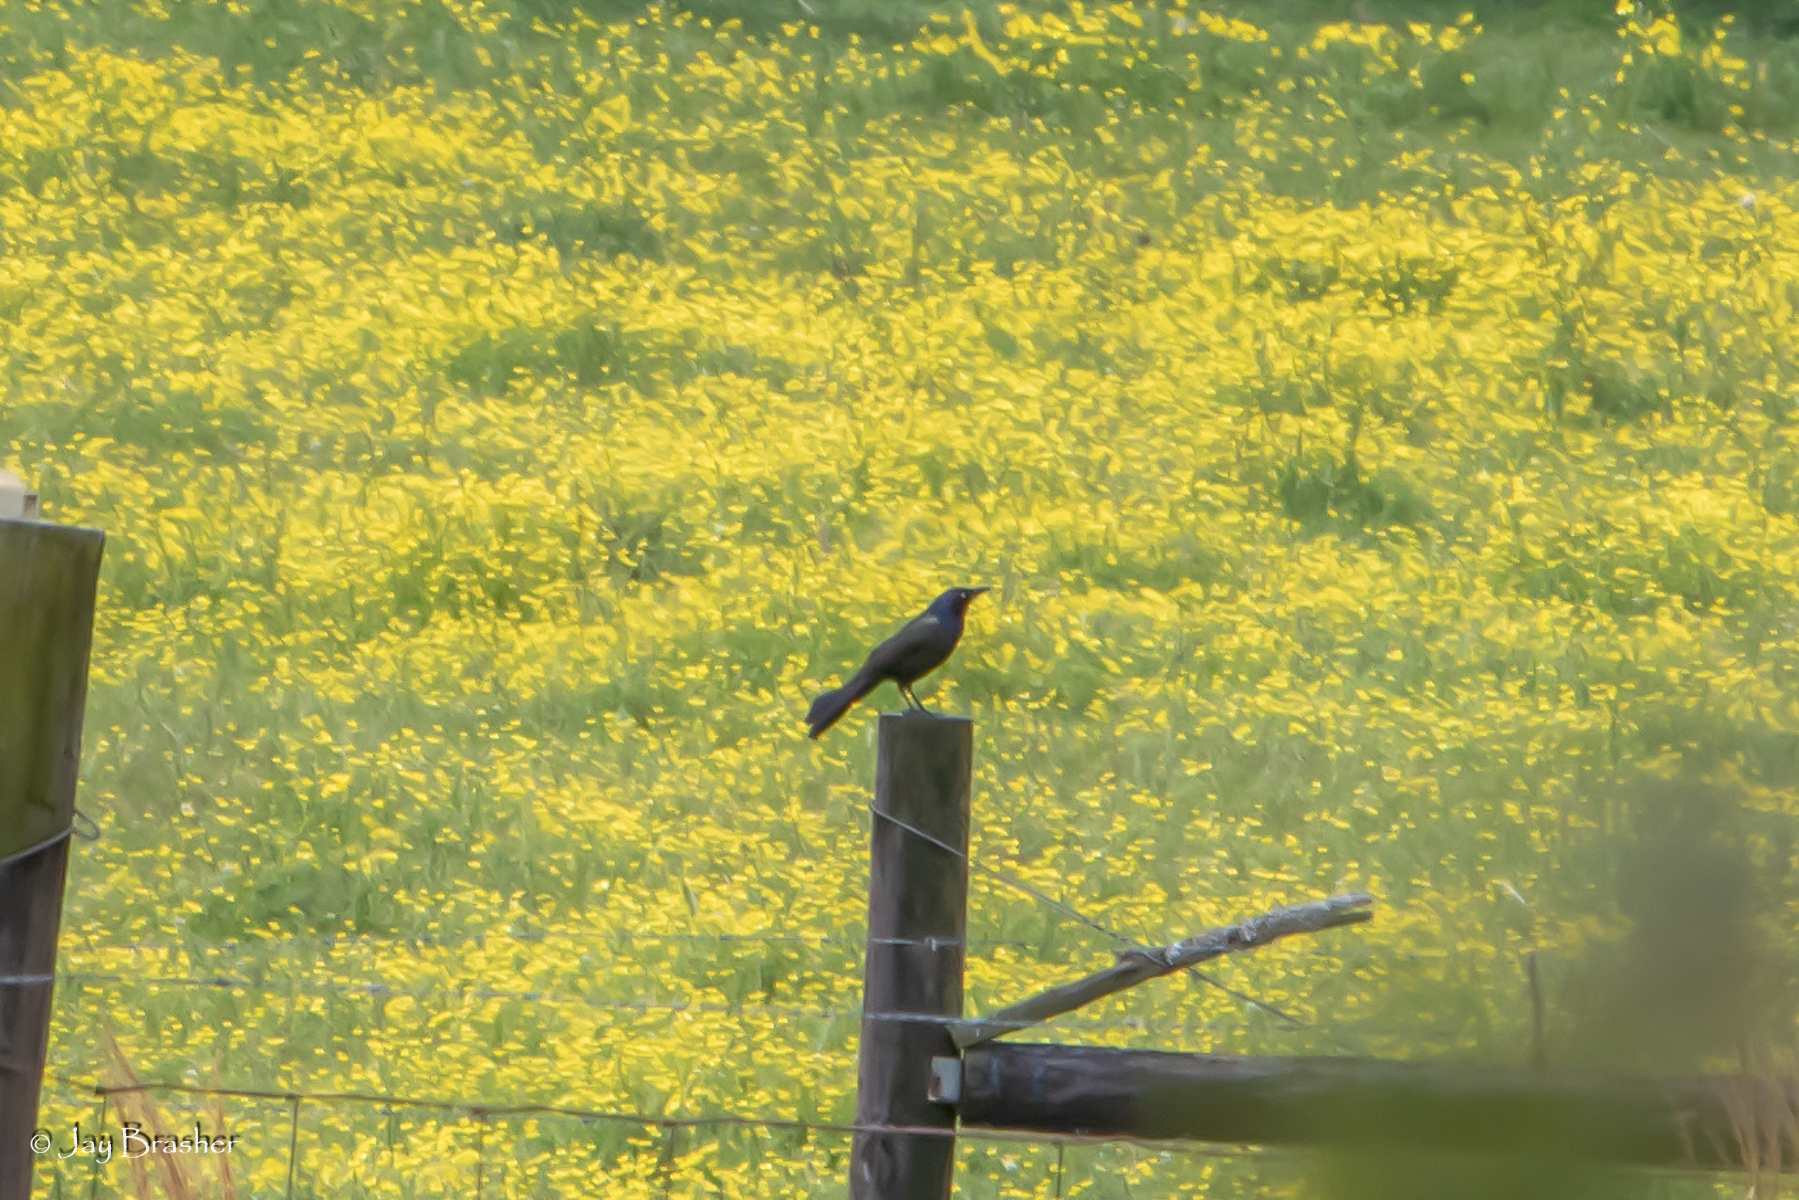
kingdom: Animalia
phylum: Chordata
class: Aves
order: Passeriformes
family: Icteridae
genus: Quiscalus
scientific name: Quiscalus quiscula
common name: Common grackle
